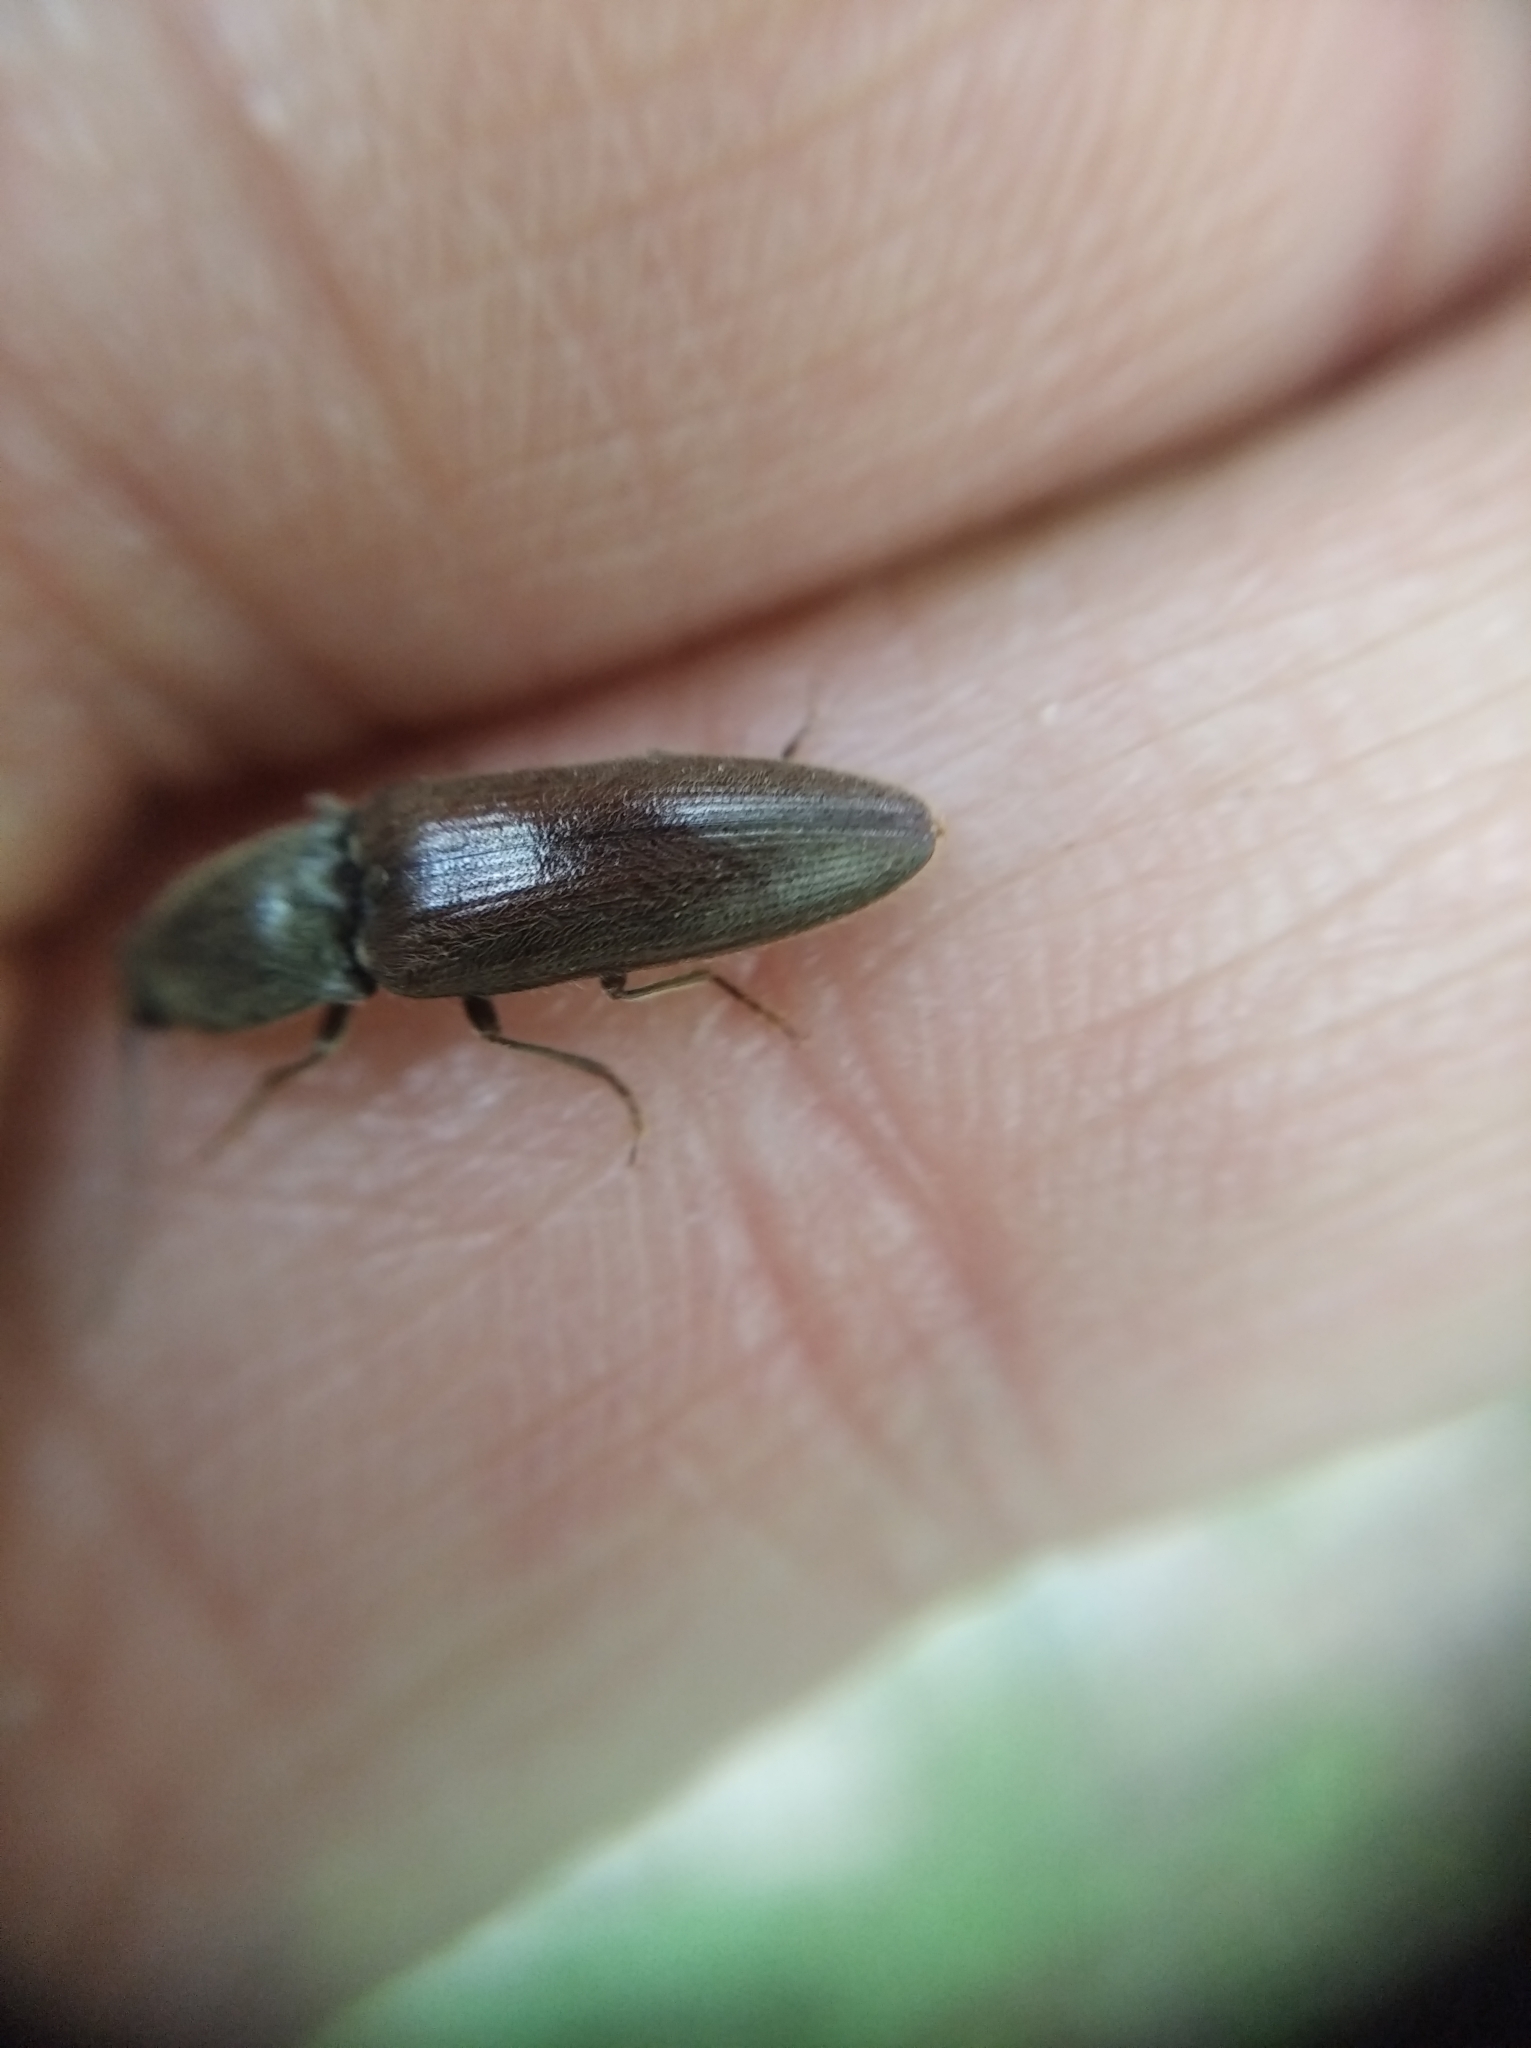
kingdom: Animalia
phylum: Arthropoda
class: Insecta
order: Coleoptera
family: Elateridae
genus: Athous
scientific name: Athous haemorrhoidalis
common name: Red-brown click beetle
